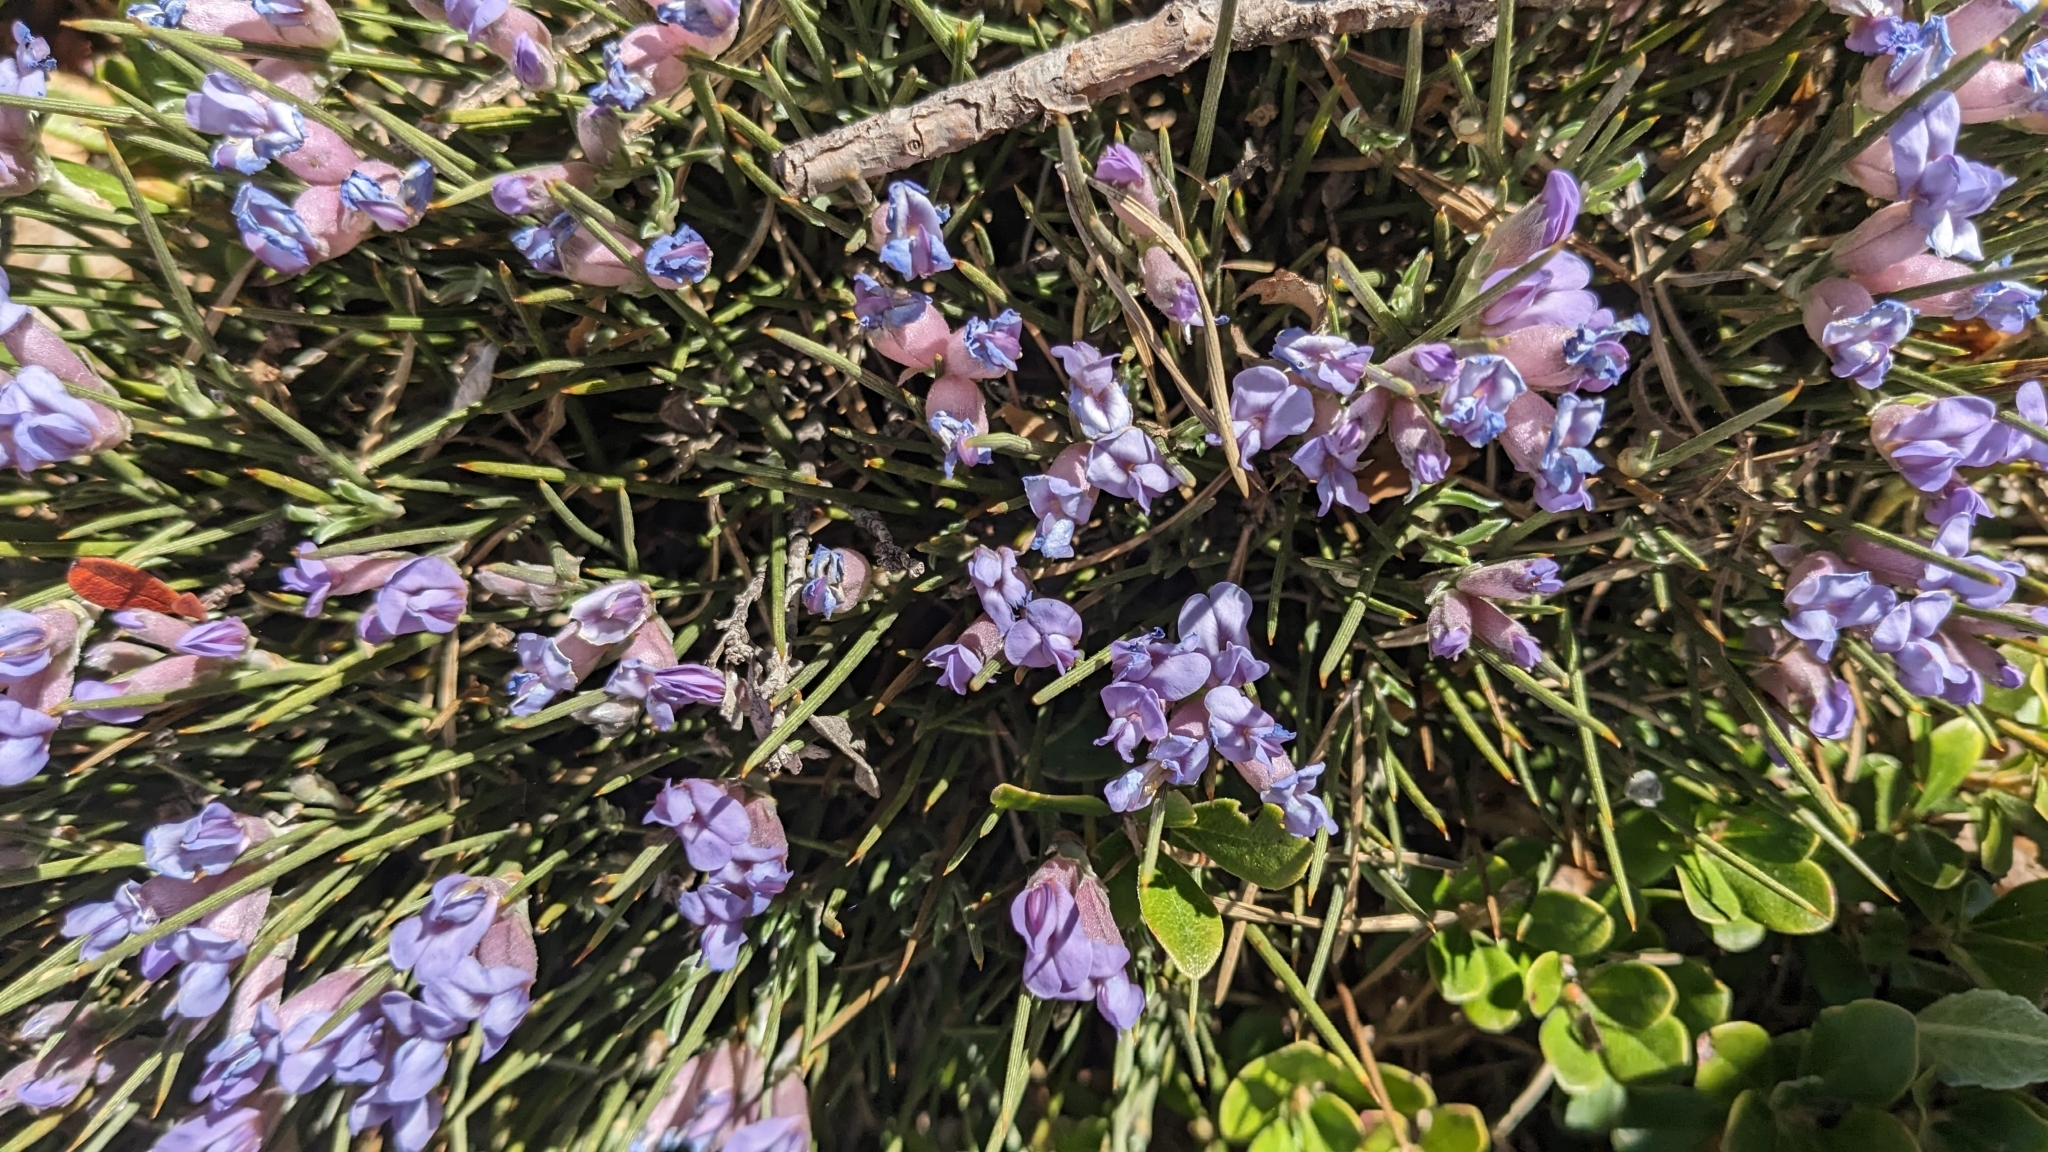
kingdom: Plantae
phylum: Tracheophyta
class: Magnoliopsida
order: Fabales
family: Fabaceae
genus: Erinacea
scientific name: Erinacea anthyllis
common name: Hedgehog-broom
